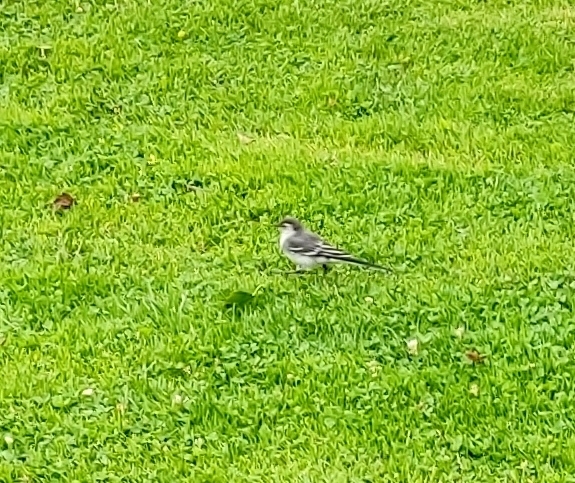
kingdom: Animalia
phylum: Chordata
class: Aves
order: Passeriformes
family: Motacillidae
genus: Motacilla
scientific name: Motacilla alba
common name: White wagtail
